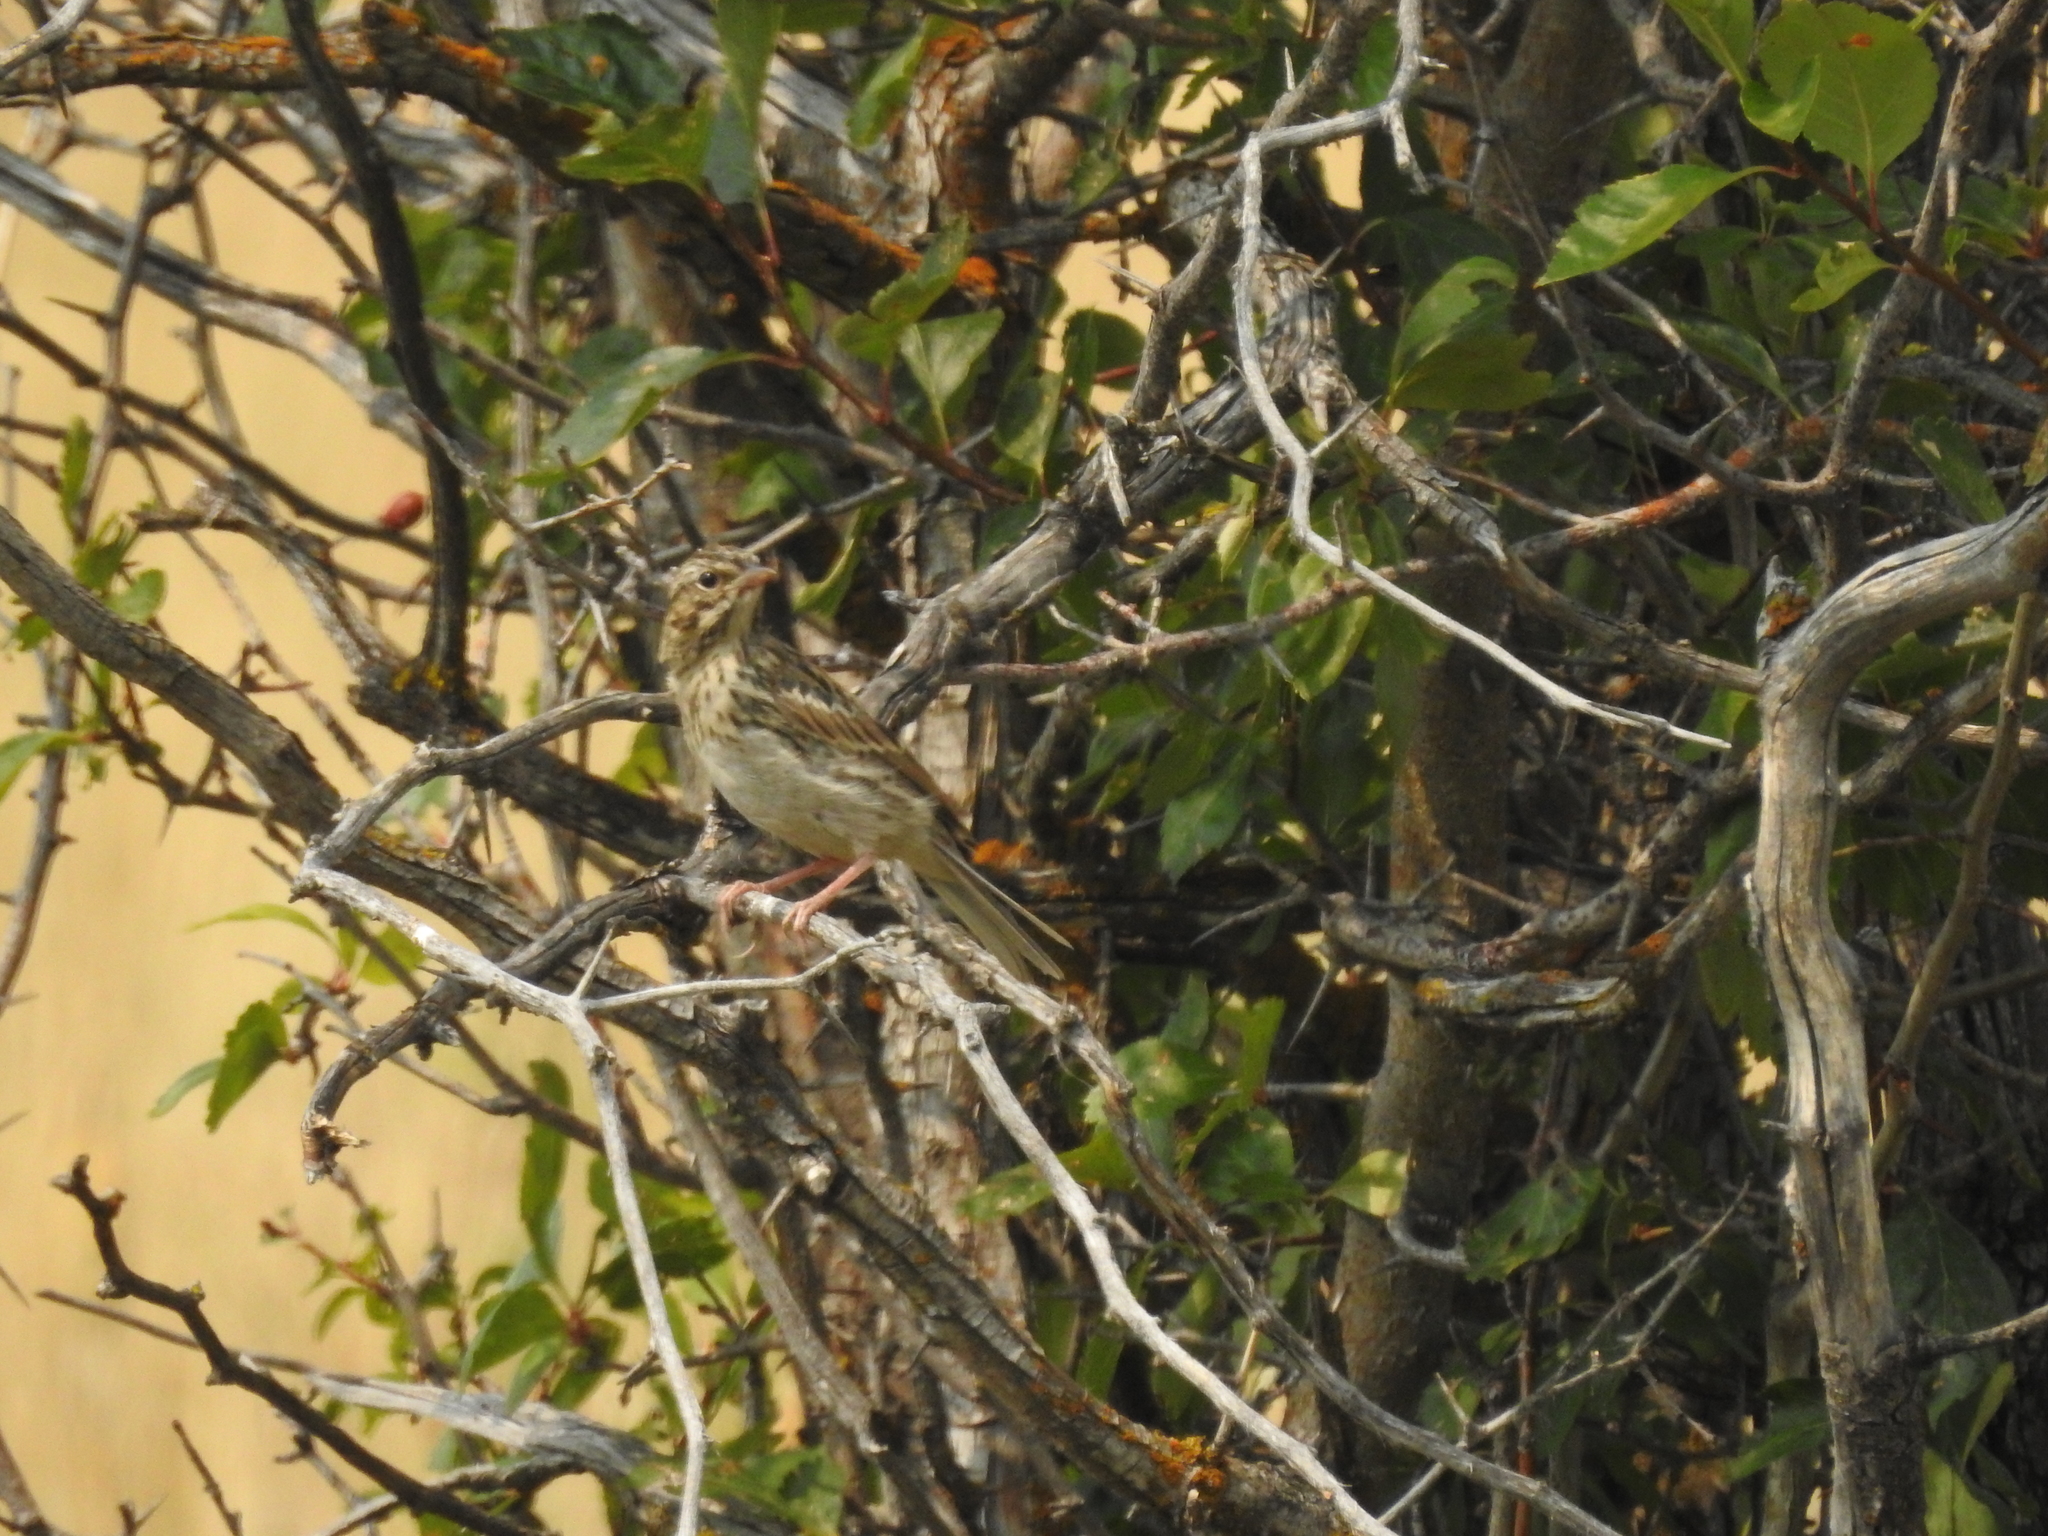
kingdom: Animalia
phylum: Chordata
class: Aves
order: Passeriformes
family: Passerellidae
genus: Passerculus
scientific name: Passerculus sandwichensis
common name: Savannah sparrow
